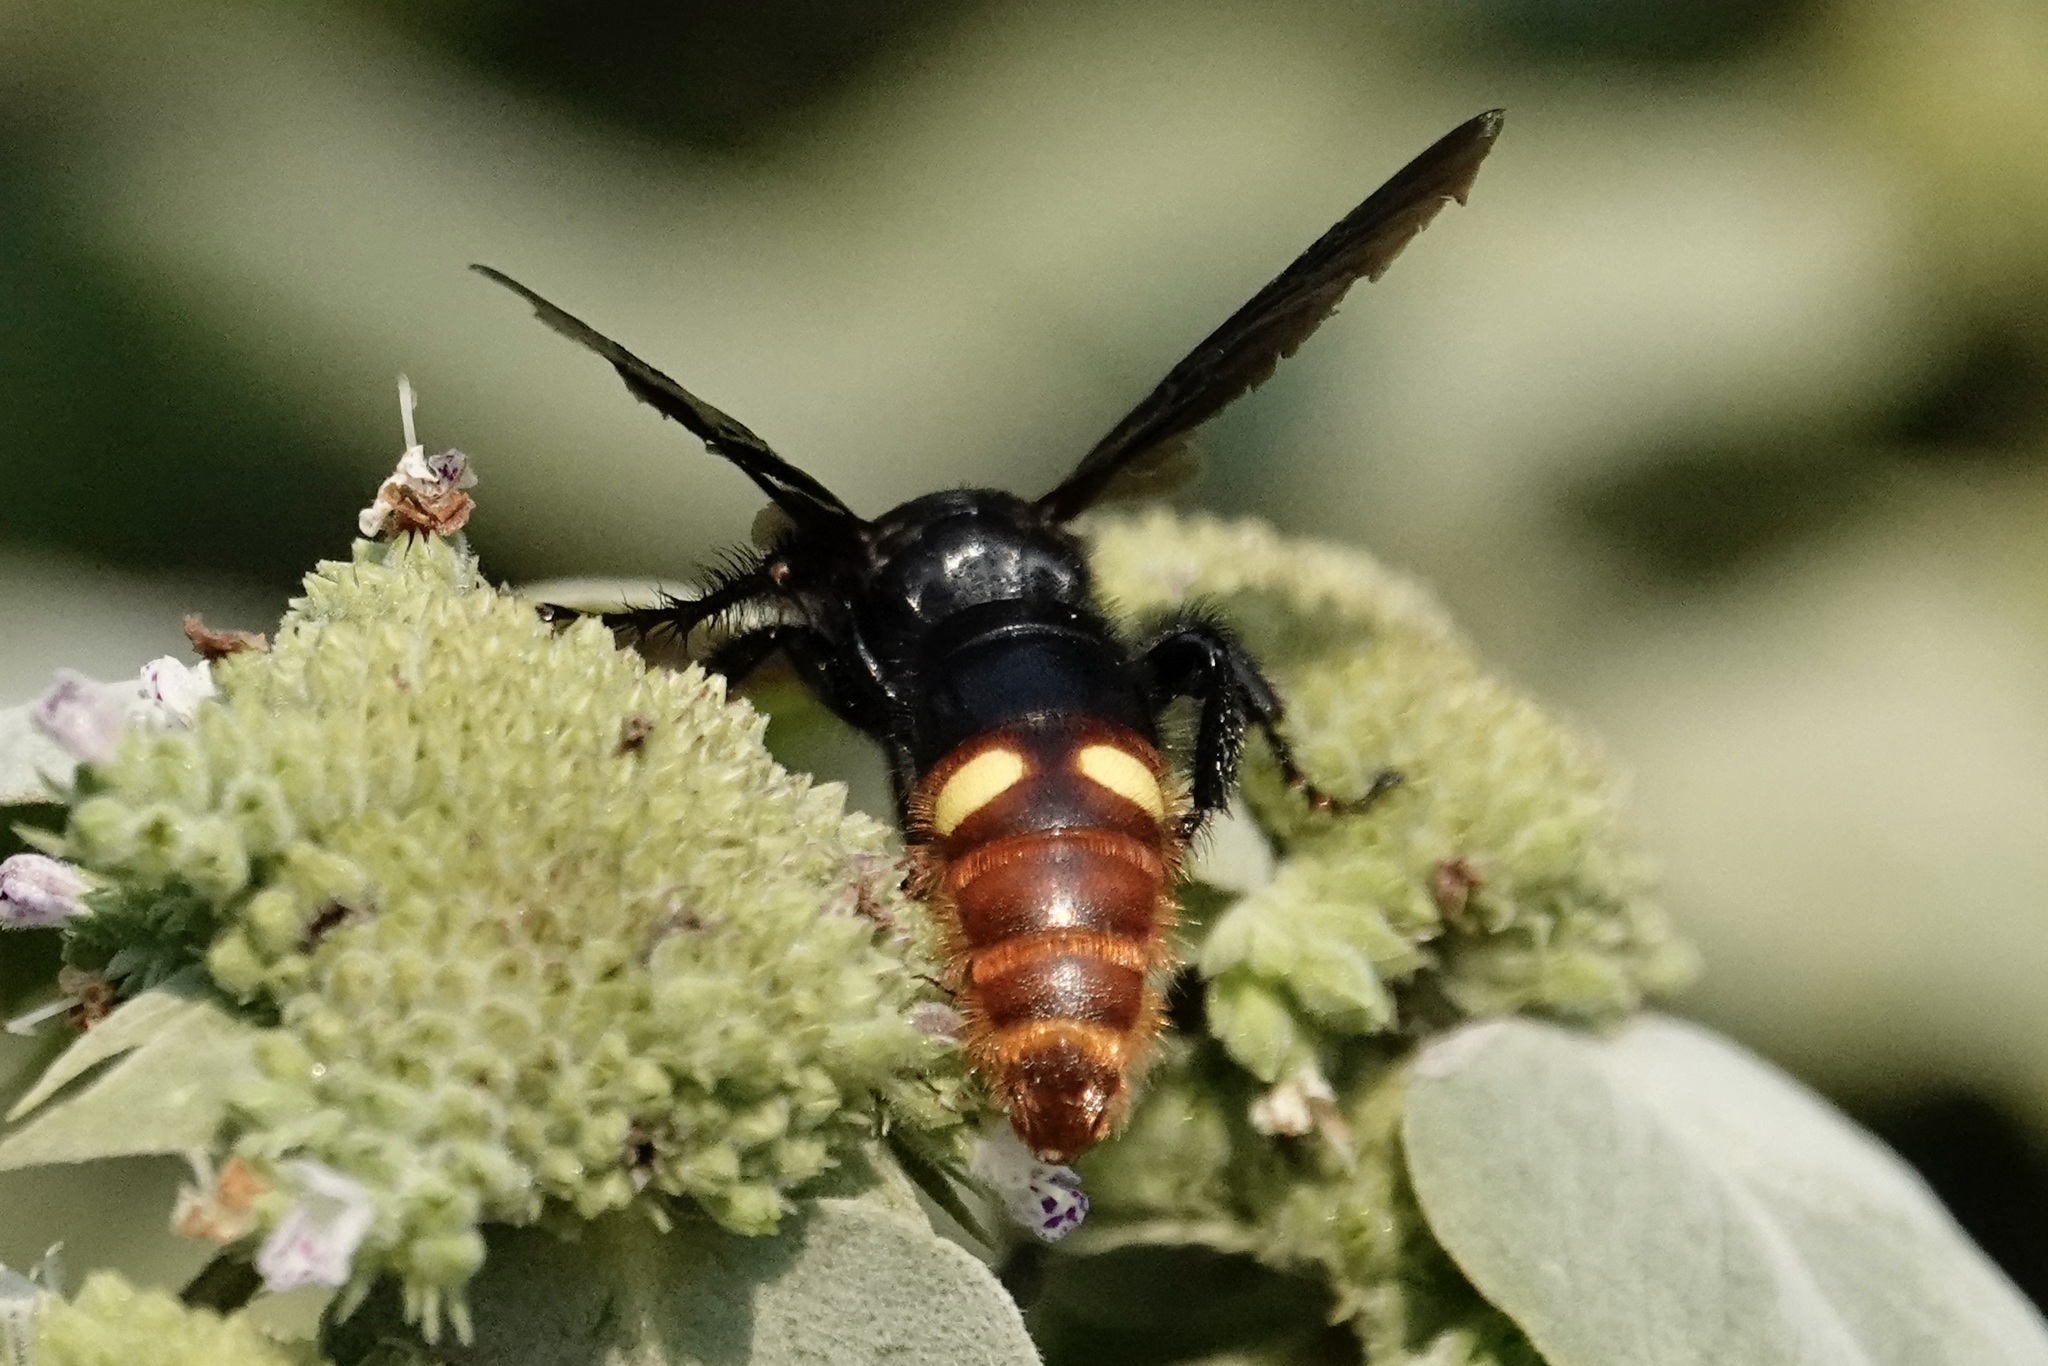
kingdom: Animalia
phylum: Arthropoda
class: Insecta
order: Hymenoptera
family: Scoliidae
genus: Scolia
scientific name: Scolia dubia
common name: Blue-winged scoliid wasp
